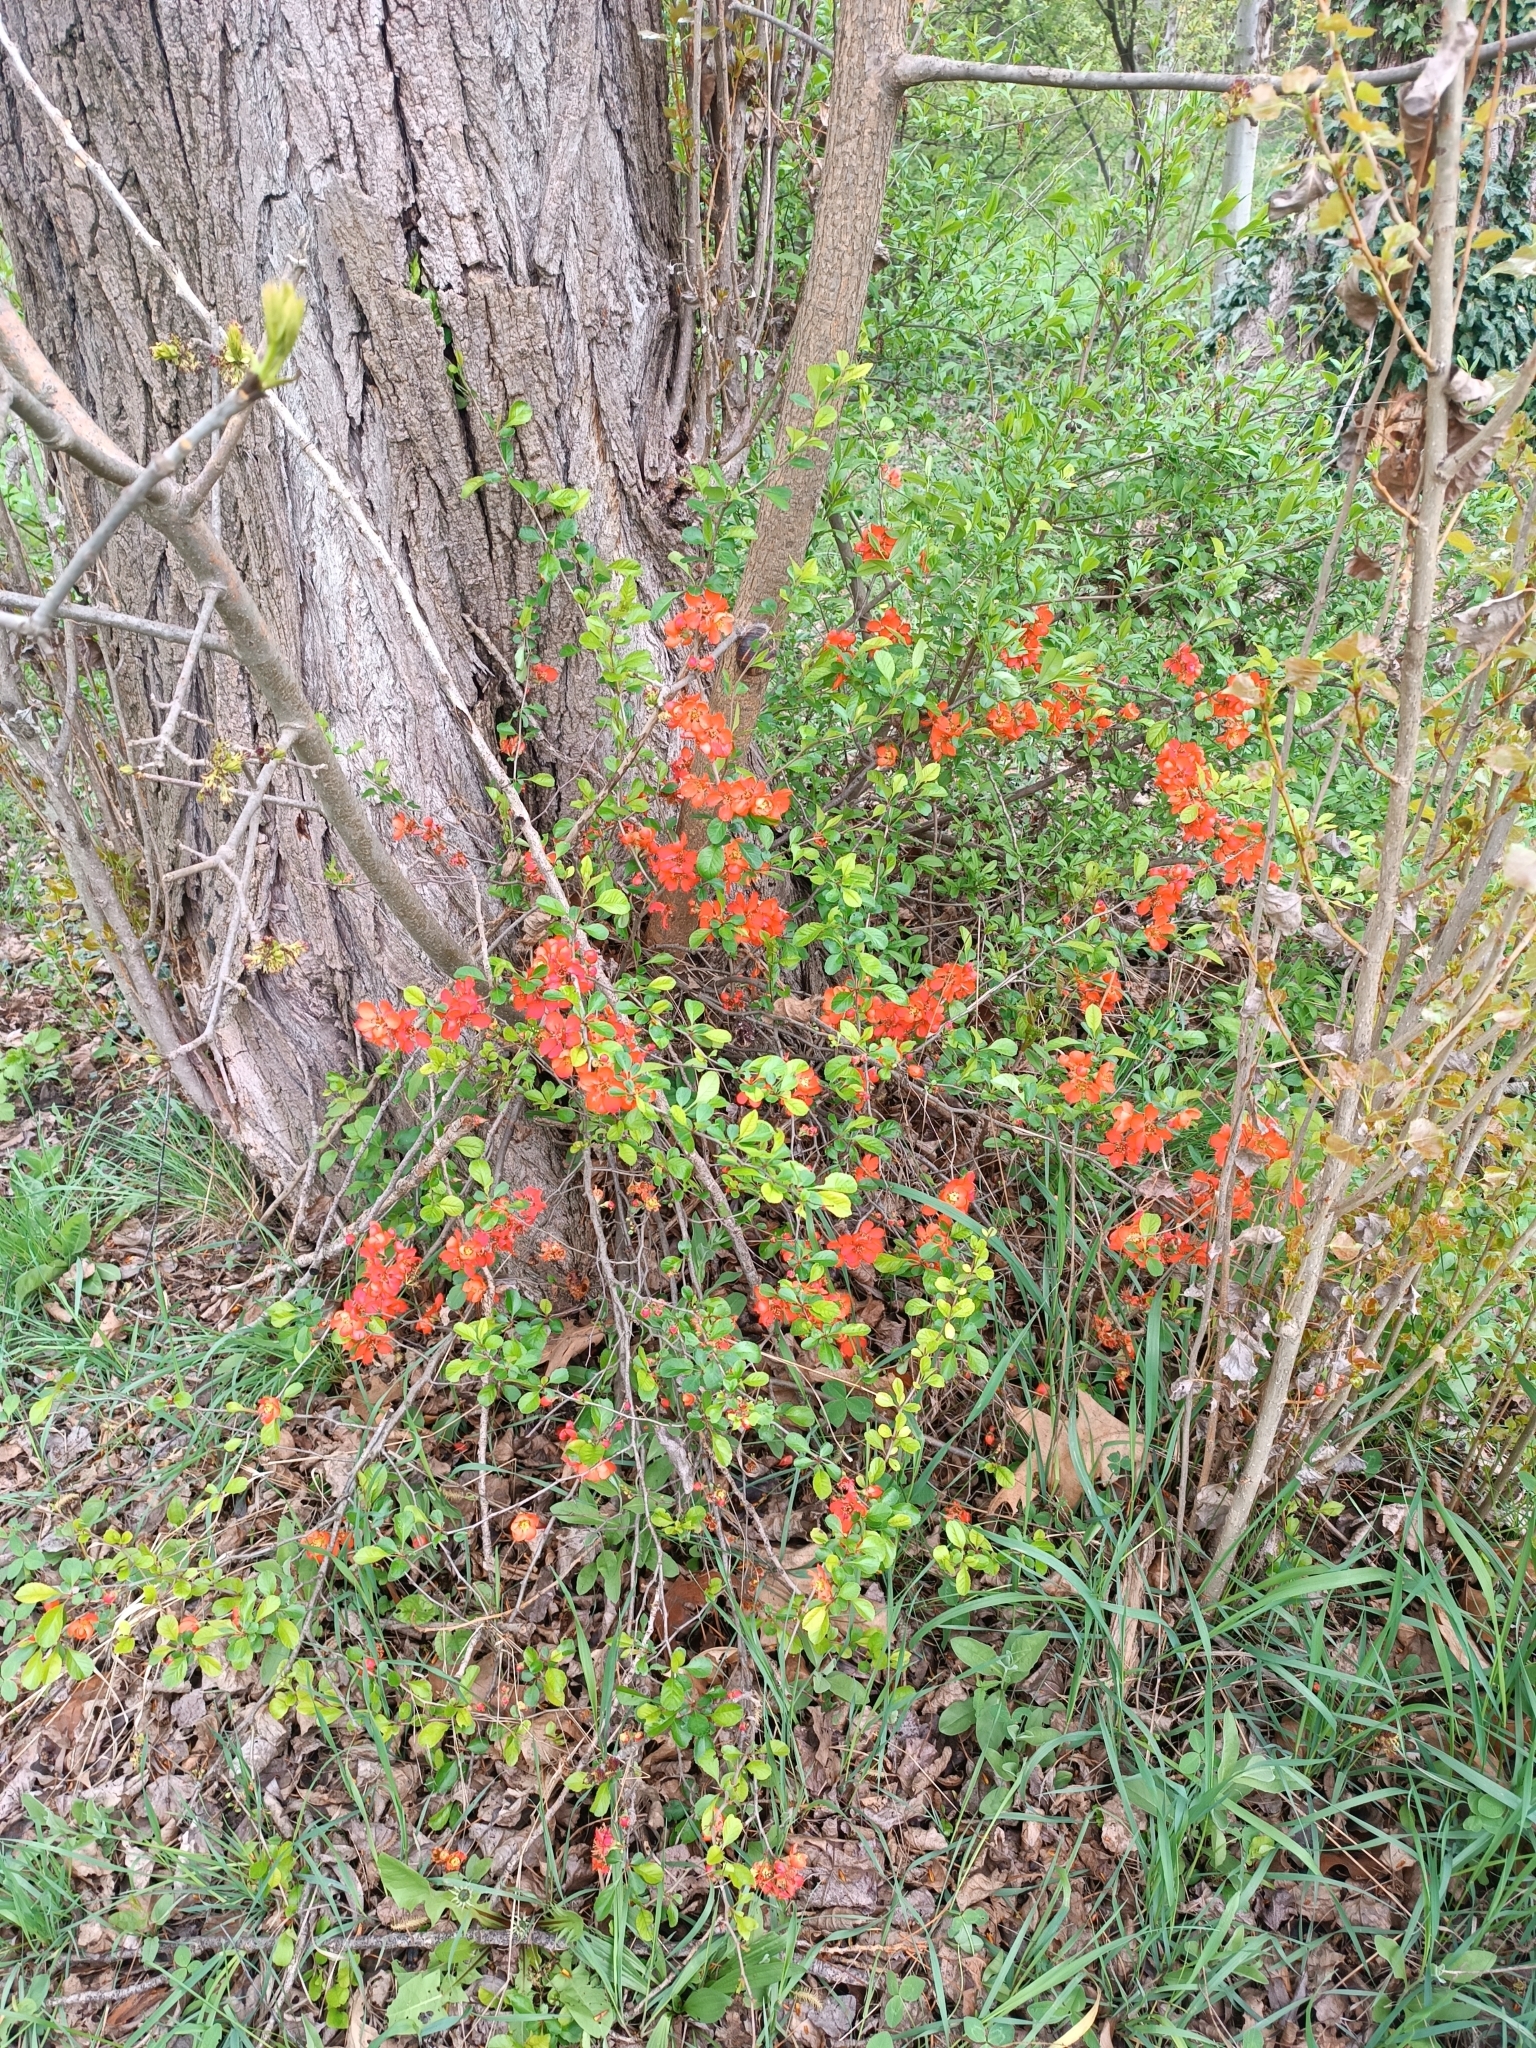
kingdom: Plantae
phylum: Tracheophyta
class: Magnoliopsida
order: Rosales
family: Rosaceae
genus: Chaenomeles
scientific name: Chaenomeles japonica
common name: Japanese quince
